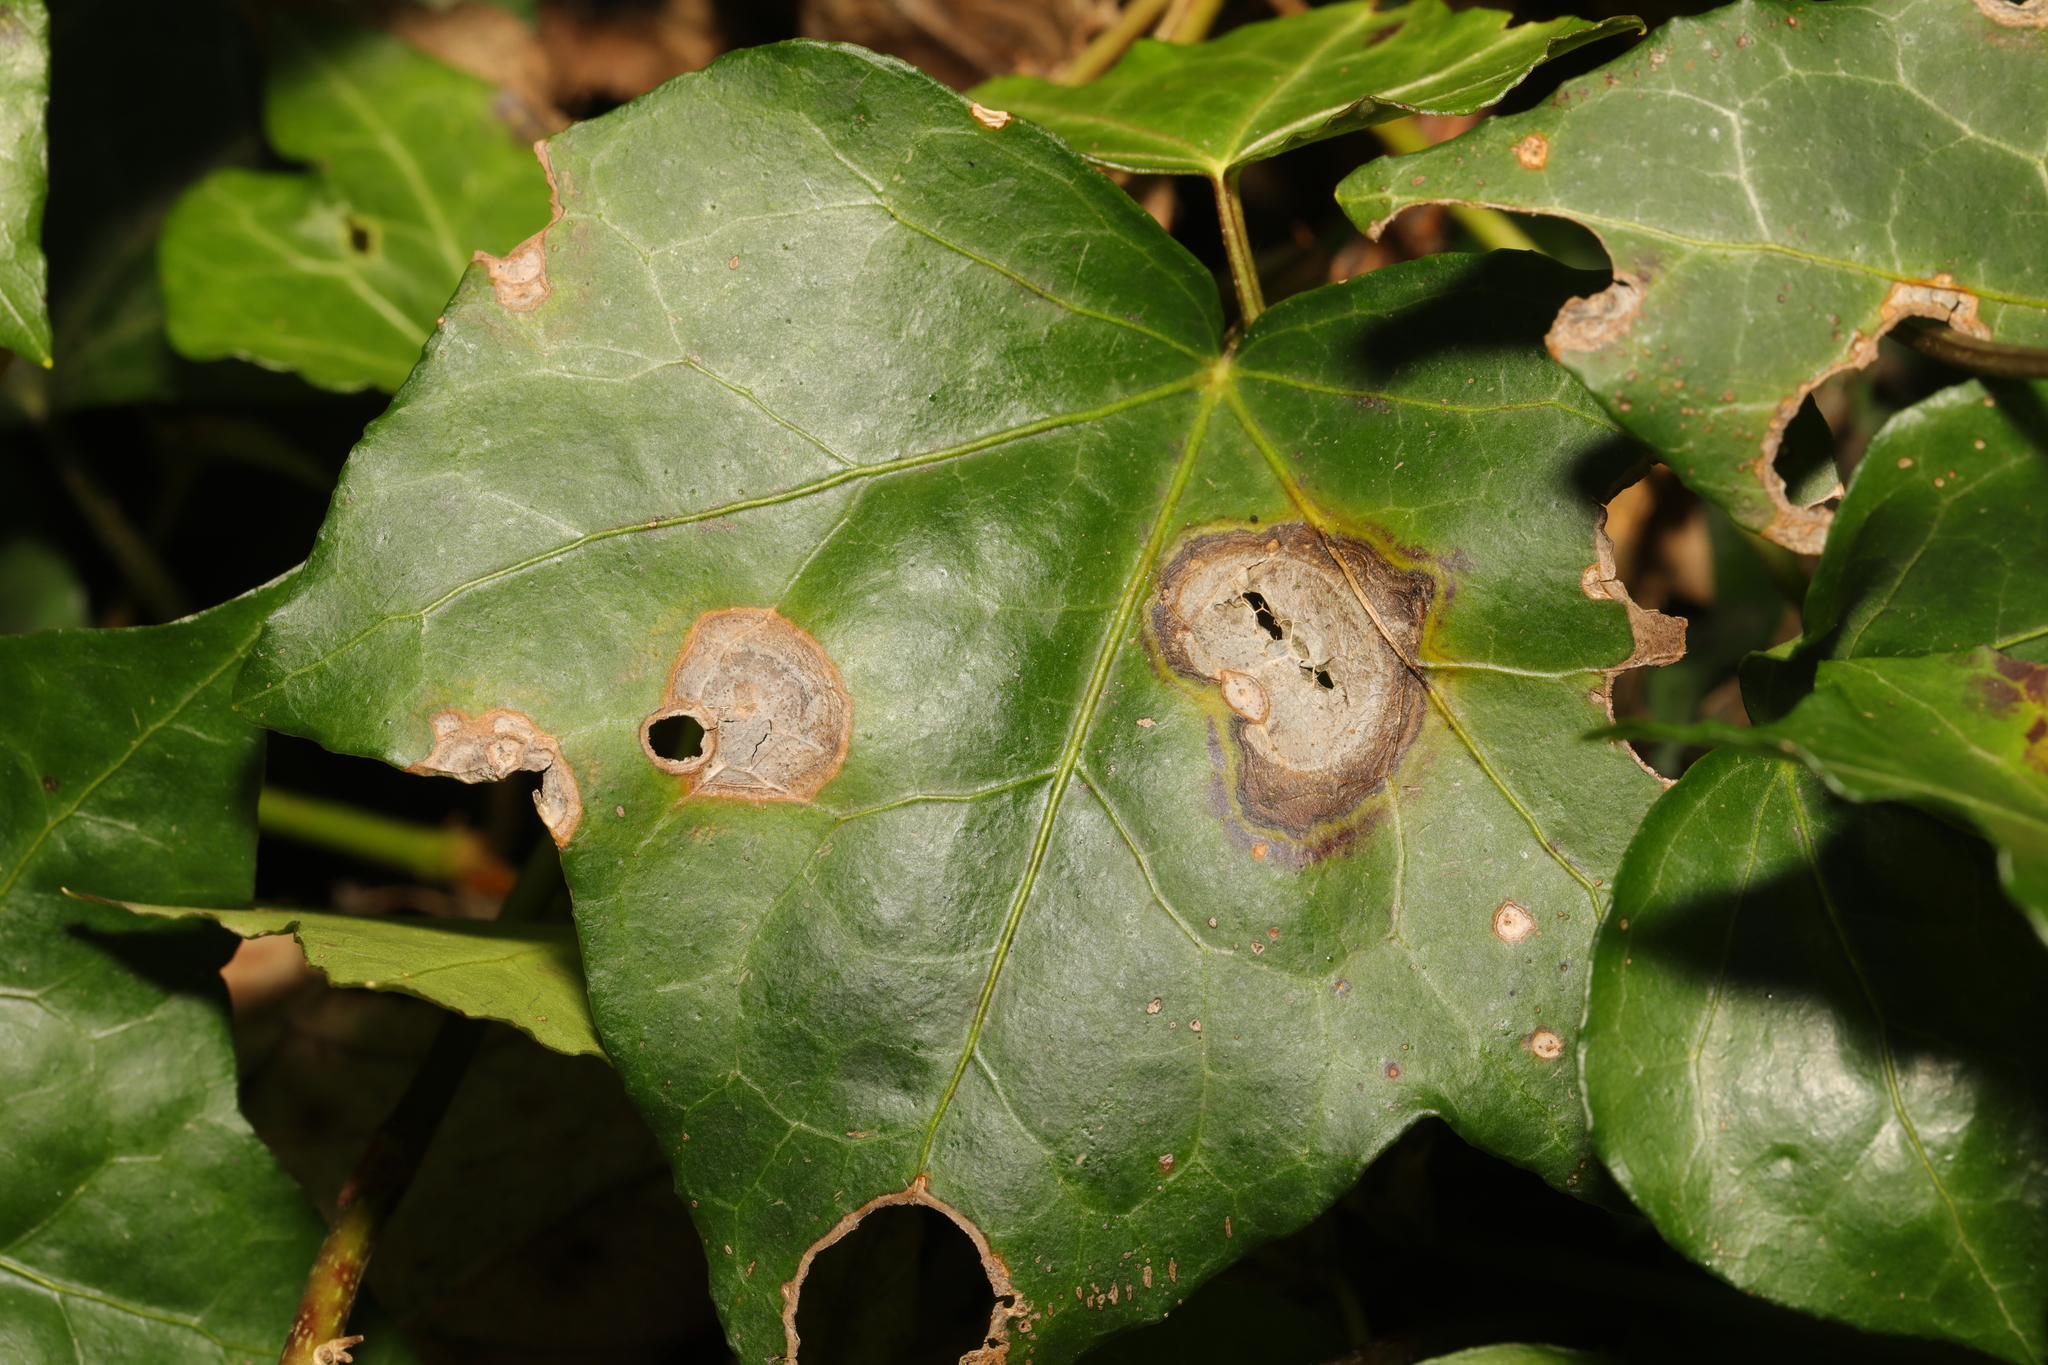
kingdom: Fungi
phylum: Ascomycota
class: Dothideomycetes
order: Pleosporales
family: Didymellaceae
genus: Boeremia
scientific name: Boeremia hedericola
